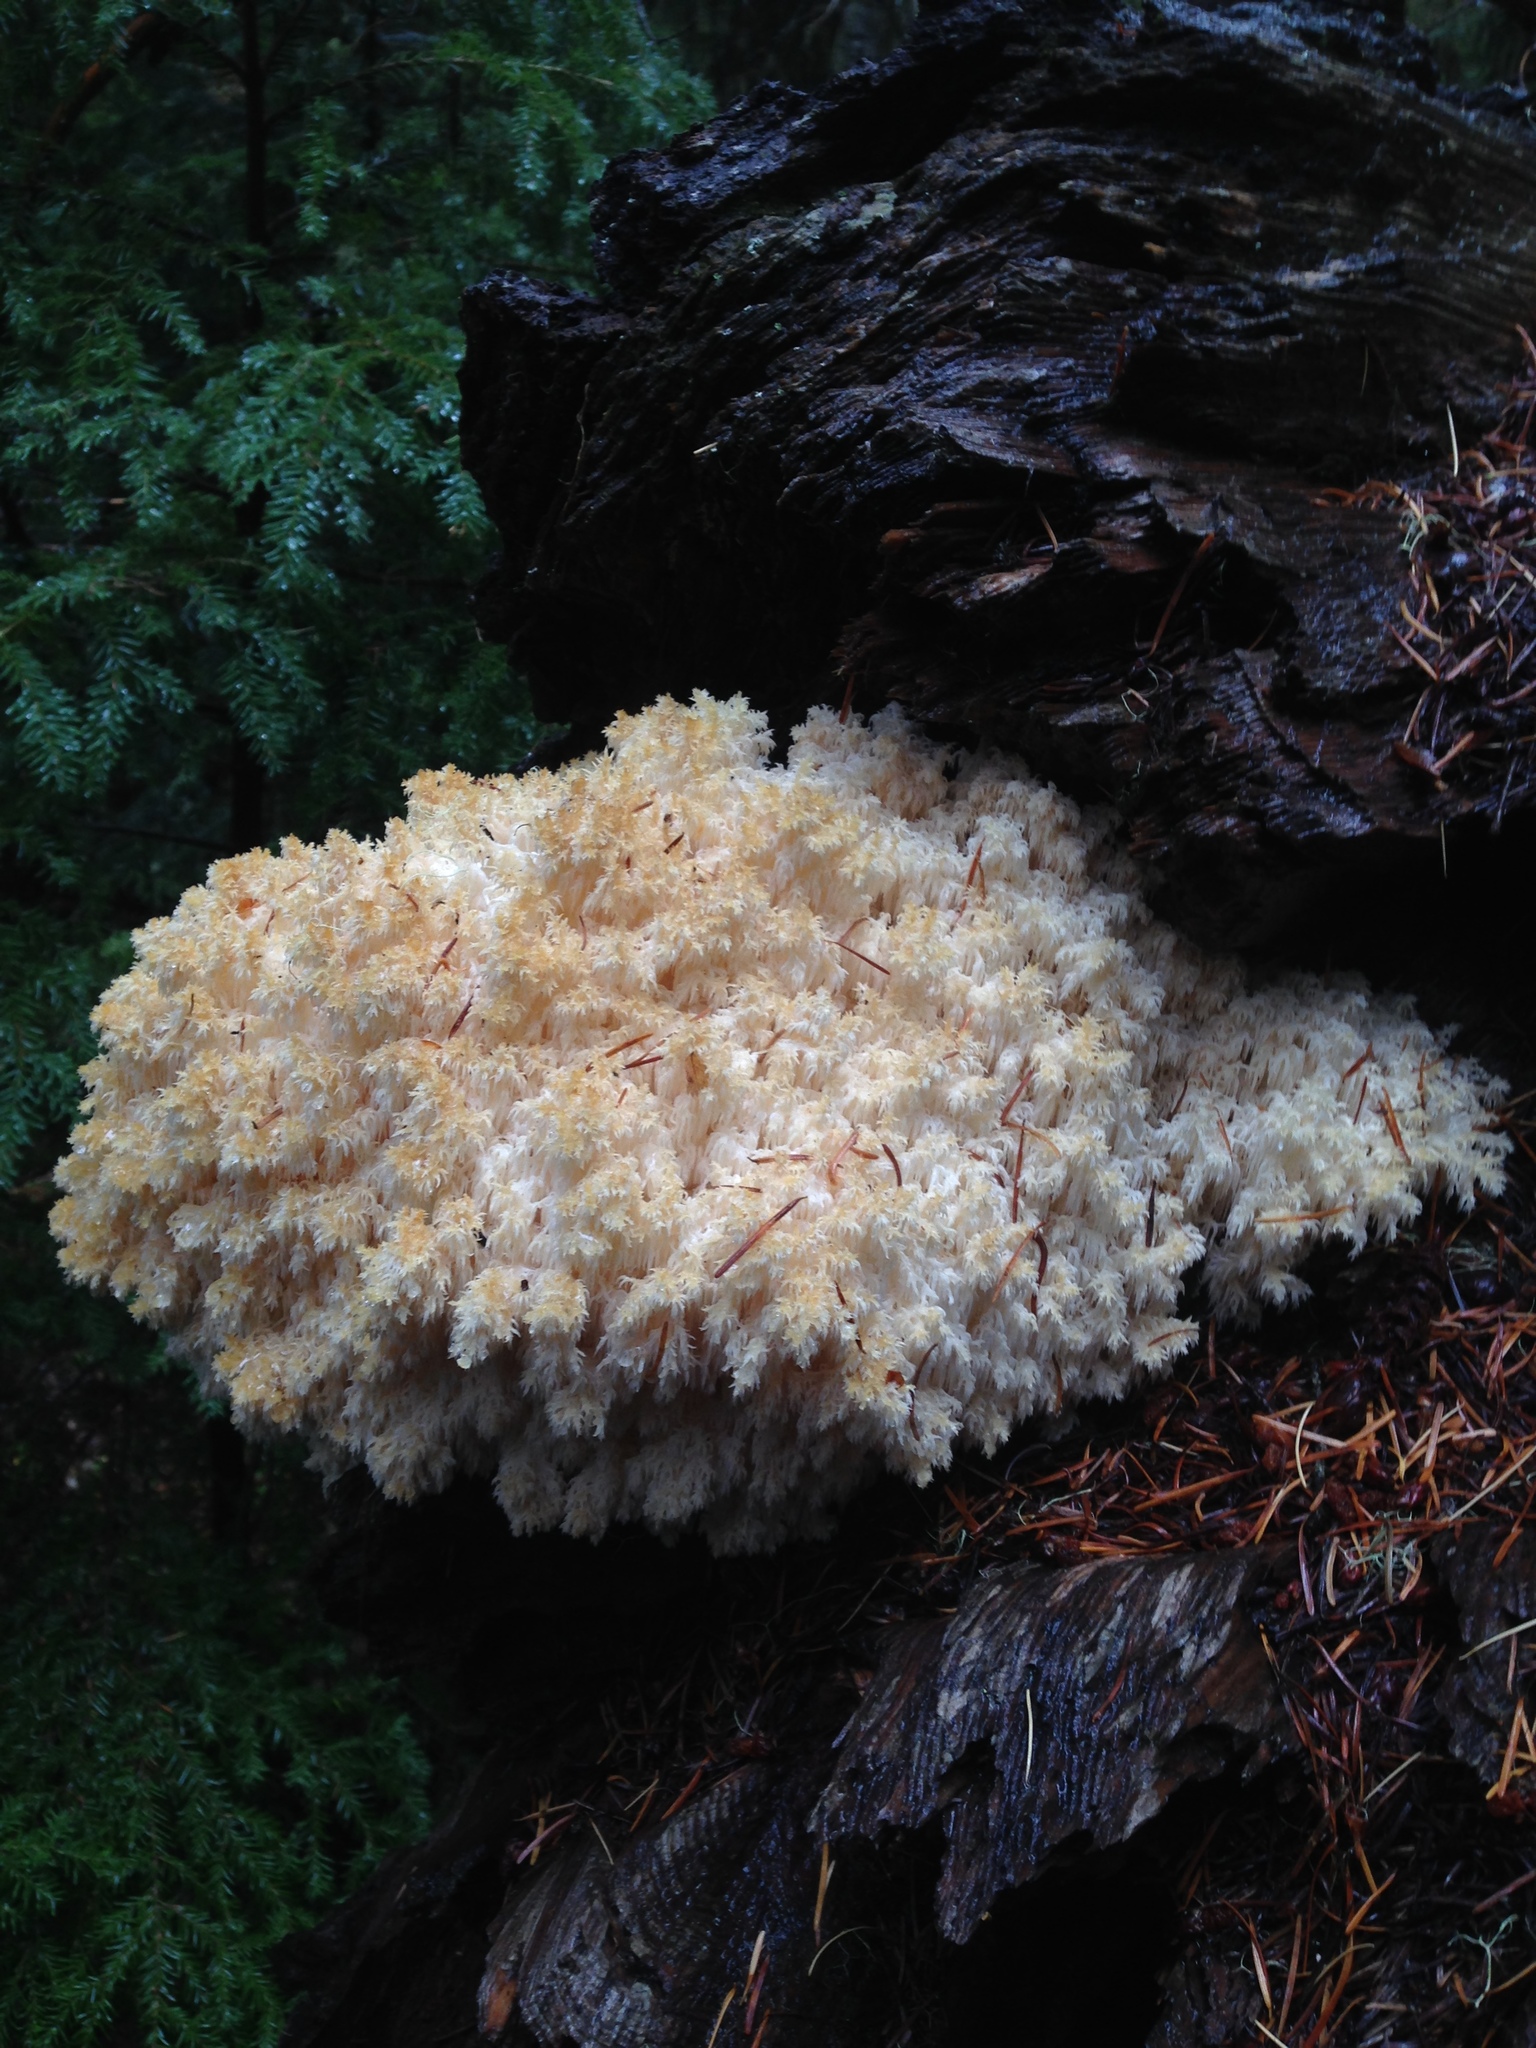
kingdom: Fungi
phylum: Basidiomycota
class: Agaricomycetes
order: Russulales
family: Hericiaceae
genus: Hericium
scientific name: Hericium abietis
